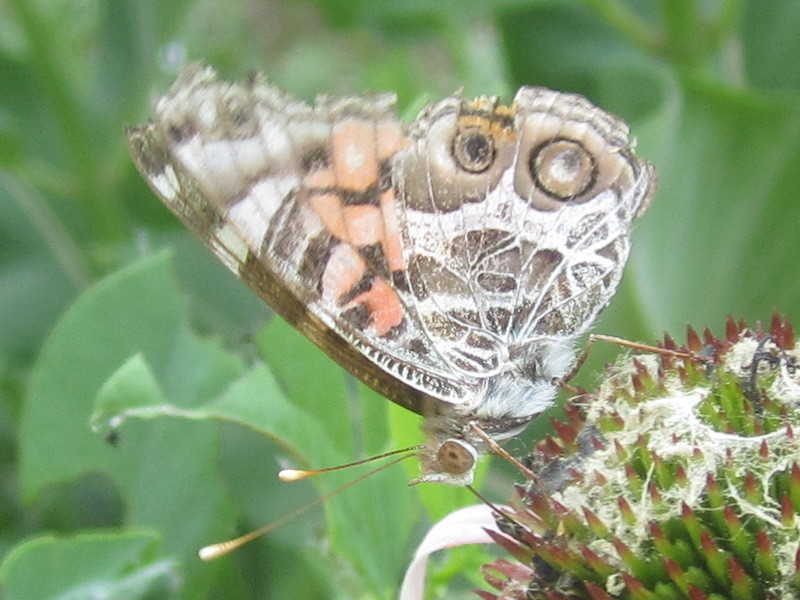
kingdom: Animalia
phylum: Arthropoda
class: Insecta
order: Lepidoptera
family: Nymphalidae
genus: Vanessa
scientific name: Vanessa virginiensis
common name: American lady
